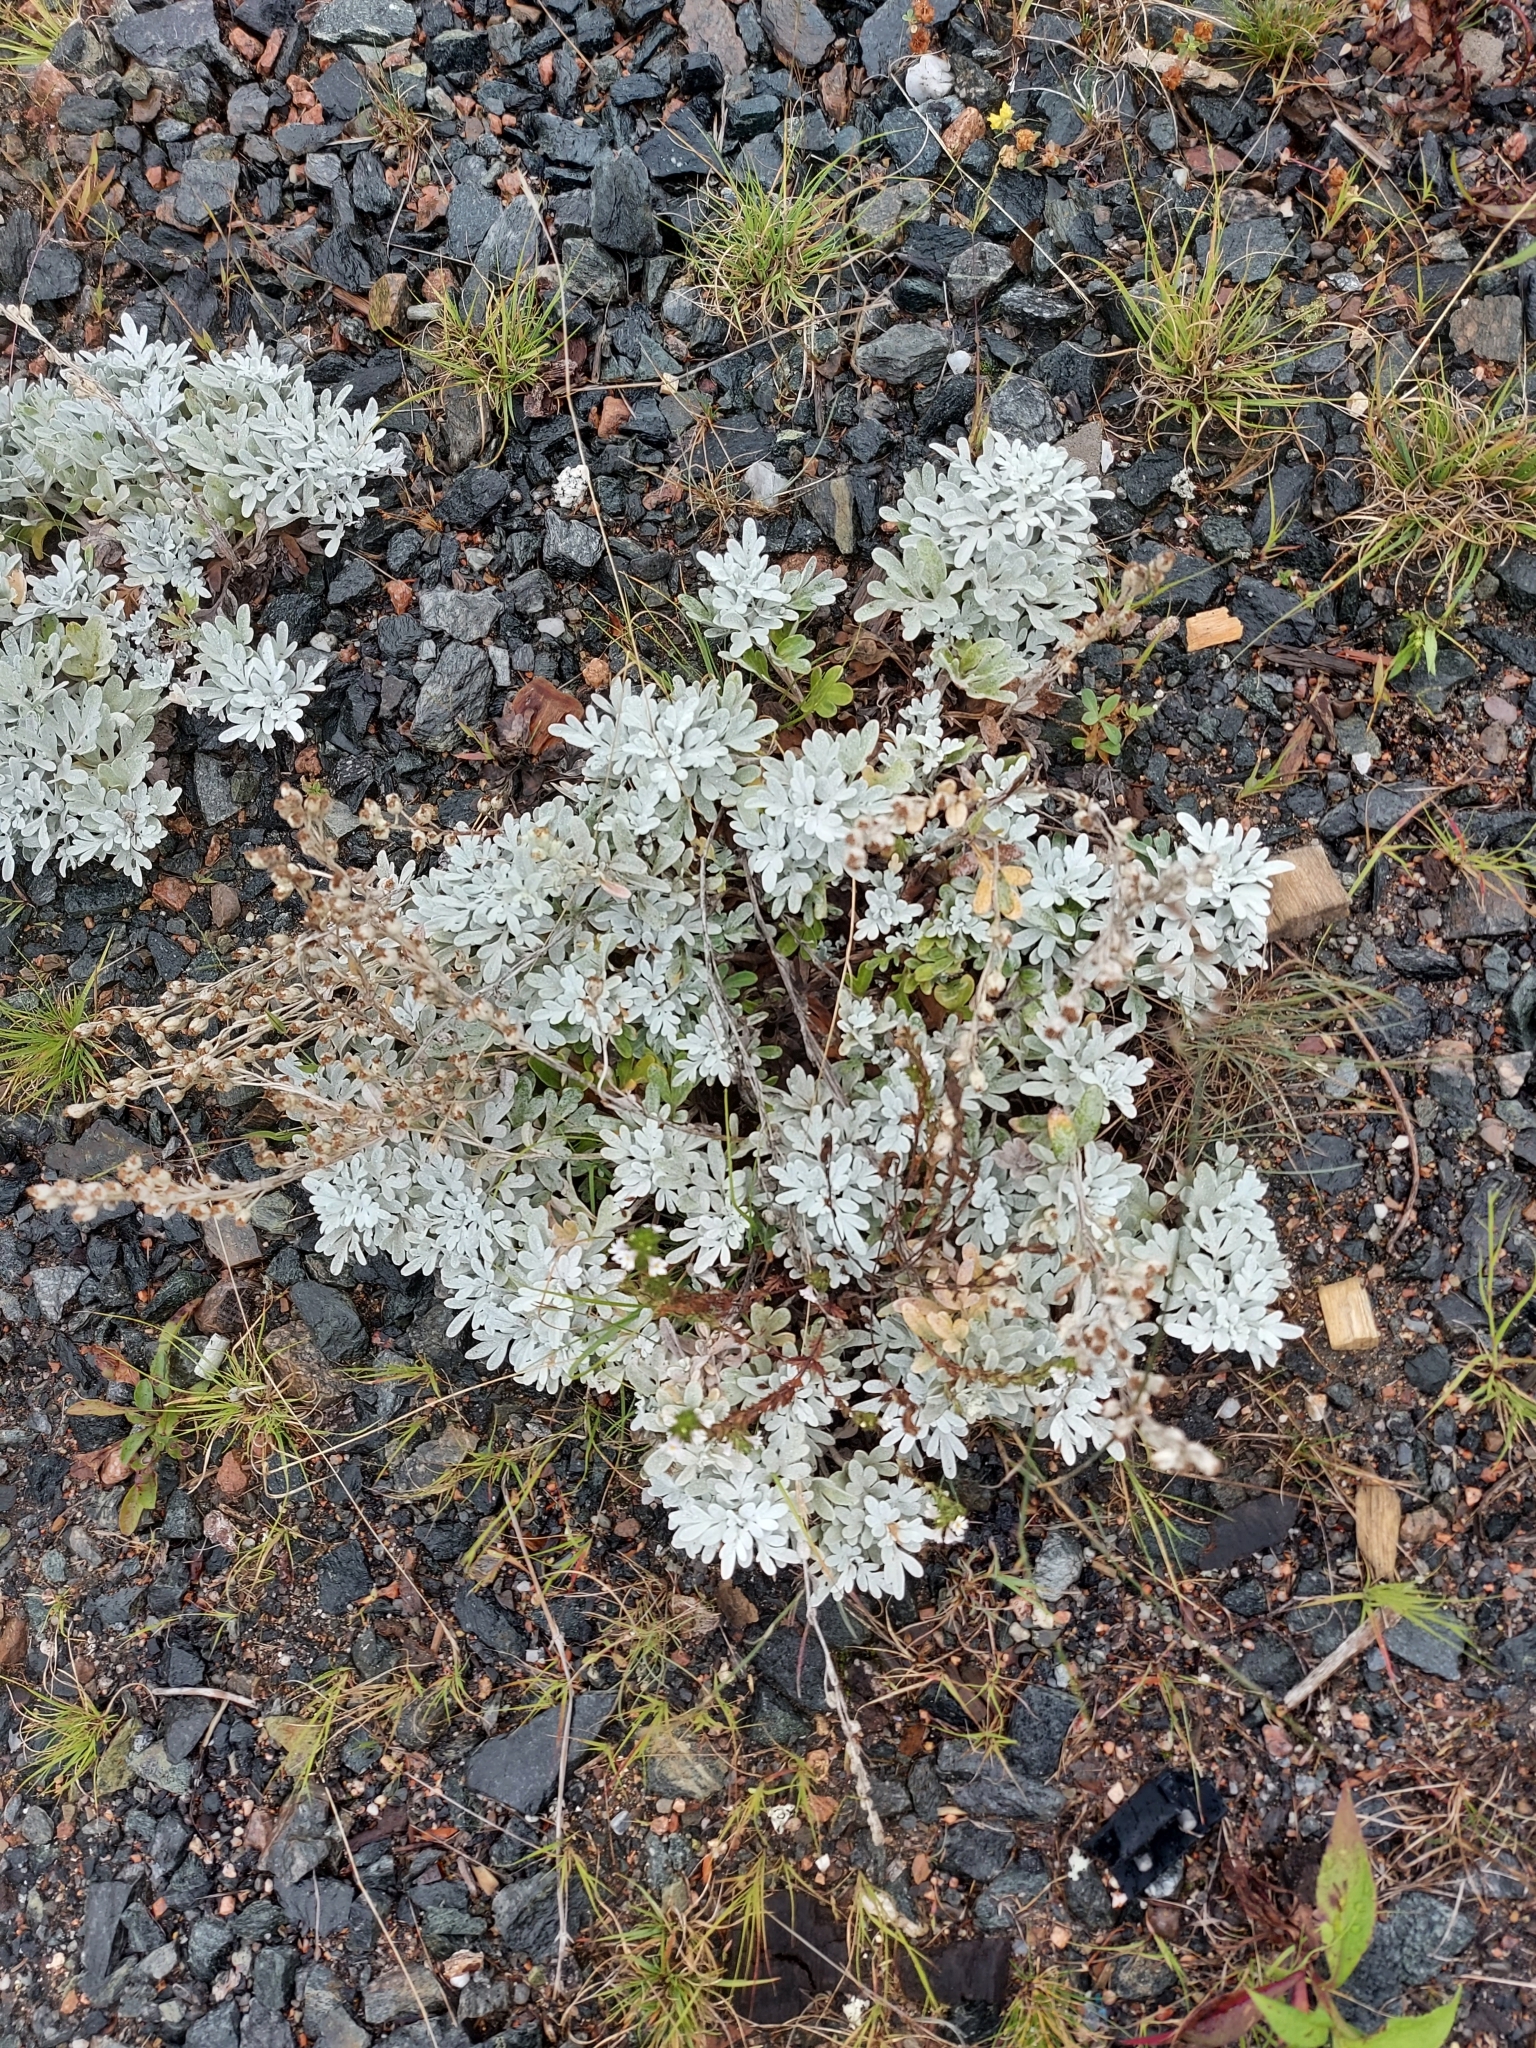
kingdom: Plantae
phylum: Tracheophyta
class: Magnoliopsida
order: Asterales
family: Asteraceae
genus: Artemisia
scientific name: Artemisia stelleriana
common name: Beach wormwood
